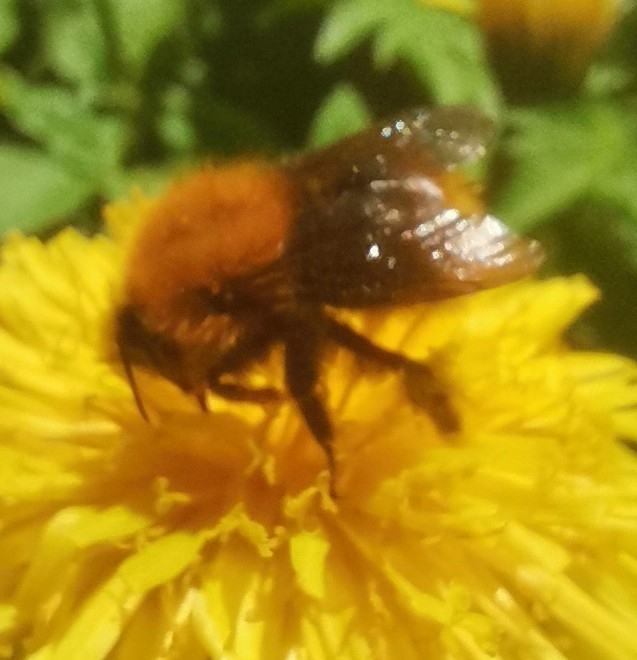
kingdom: Animalia
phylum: Arthropoda
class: Insecta
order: Hymenoptera
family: Apidae
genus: Bombus
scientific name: Bombus pascuorum
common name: Common carder bee
